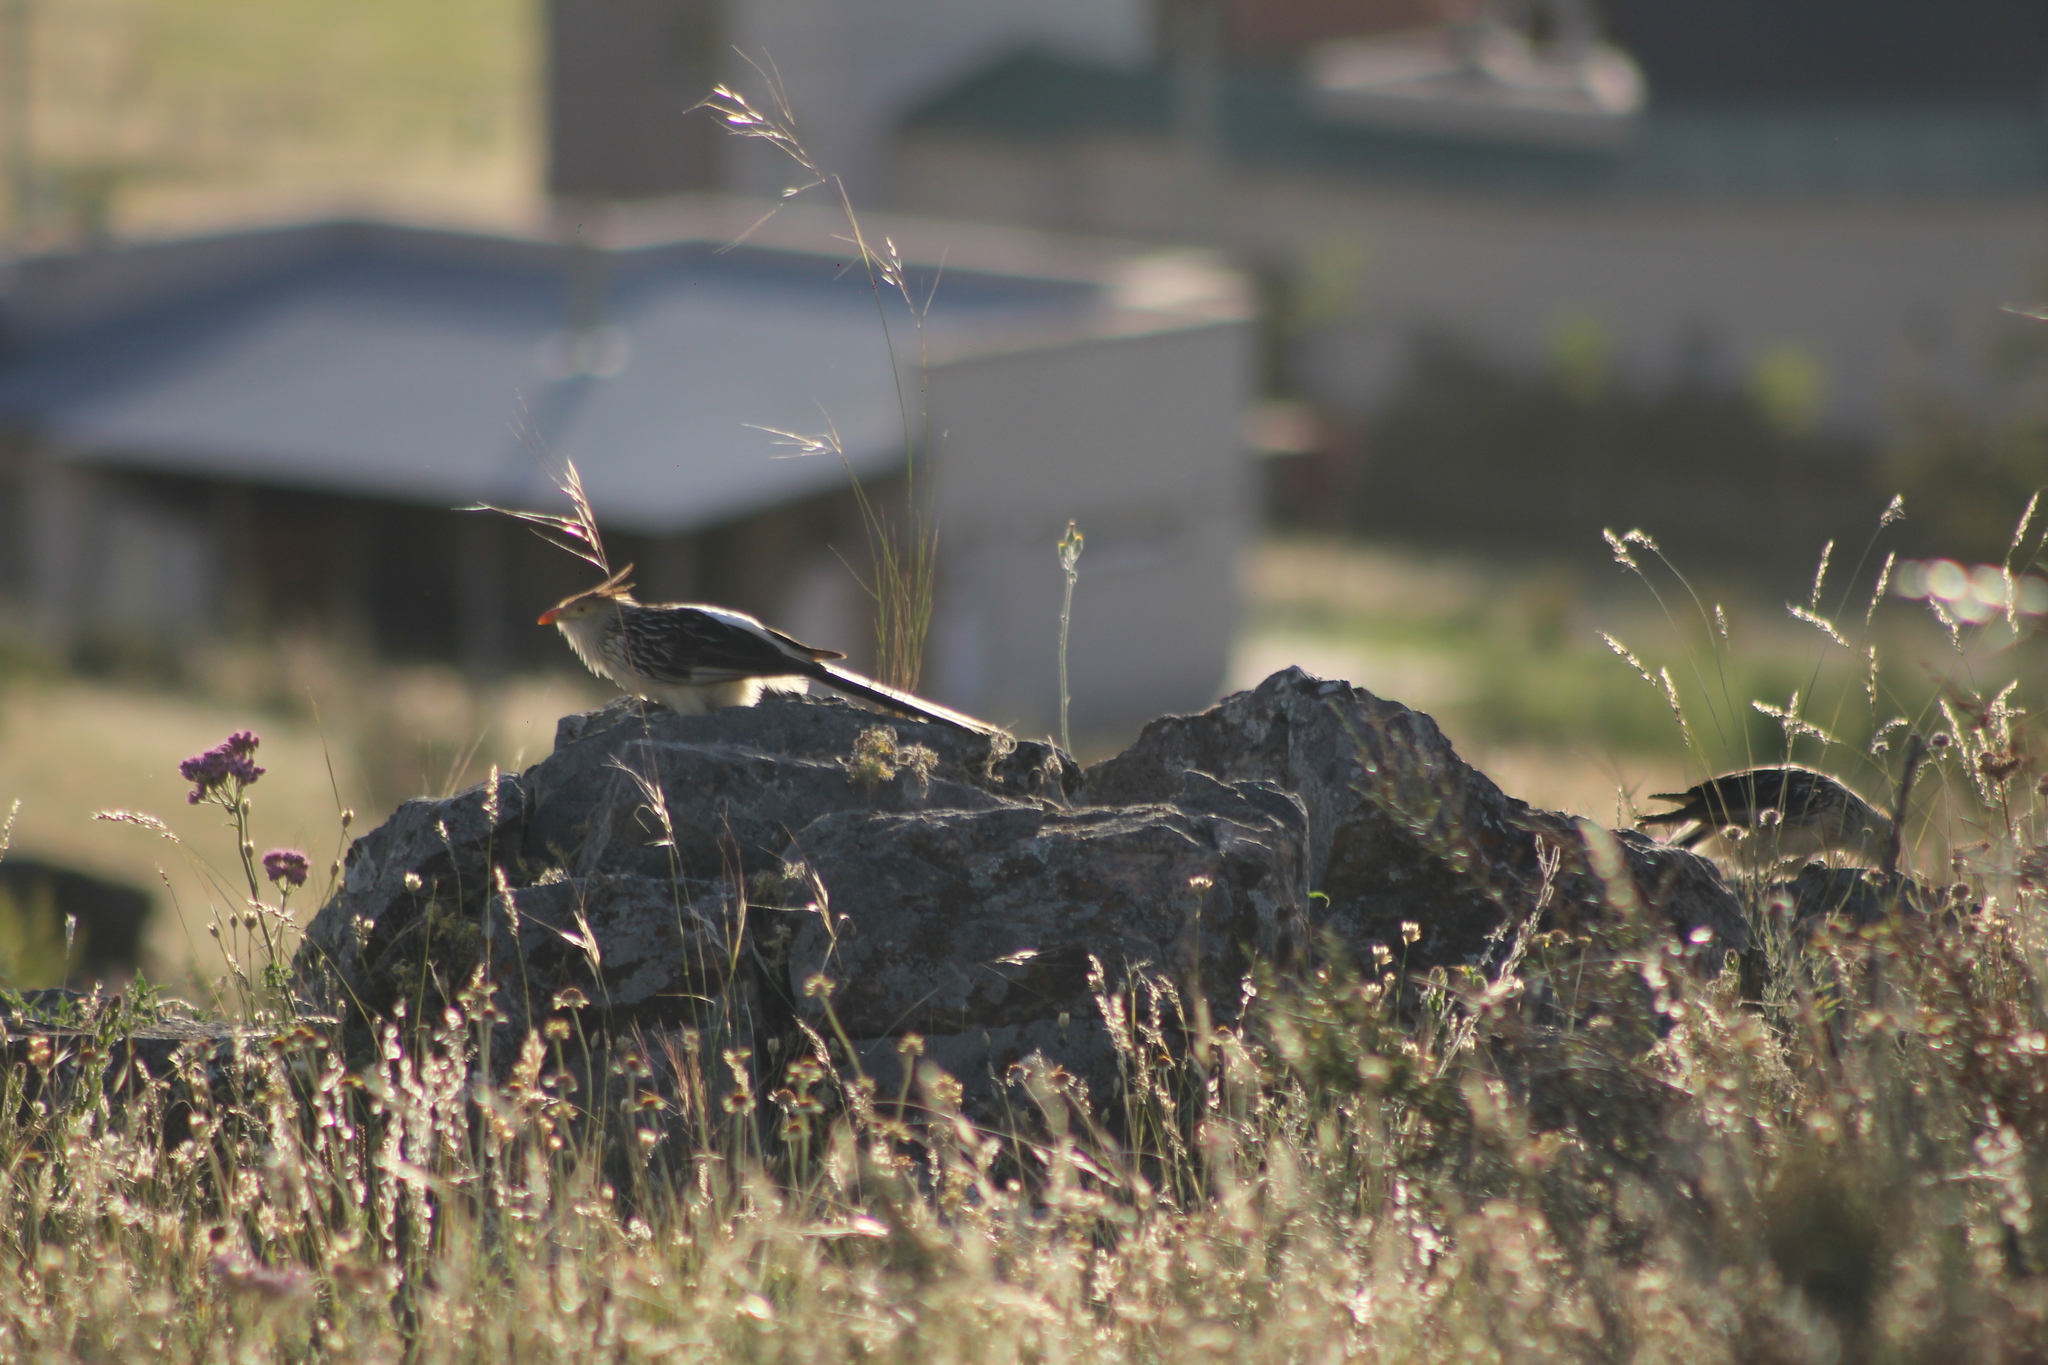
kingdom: Animalia
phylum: Chordata
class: Aves
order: Cuculiformes
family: Cuculidae
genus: Guira
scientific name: Guira guira
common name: Guira cuckoo
